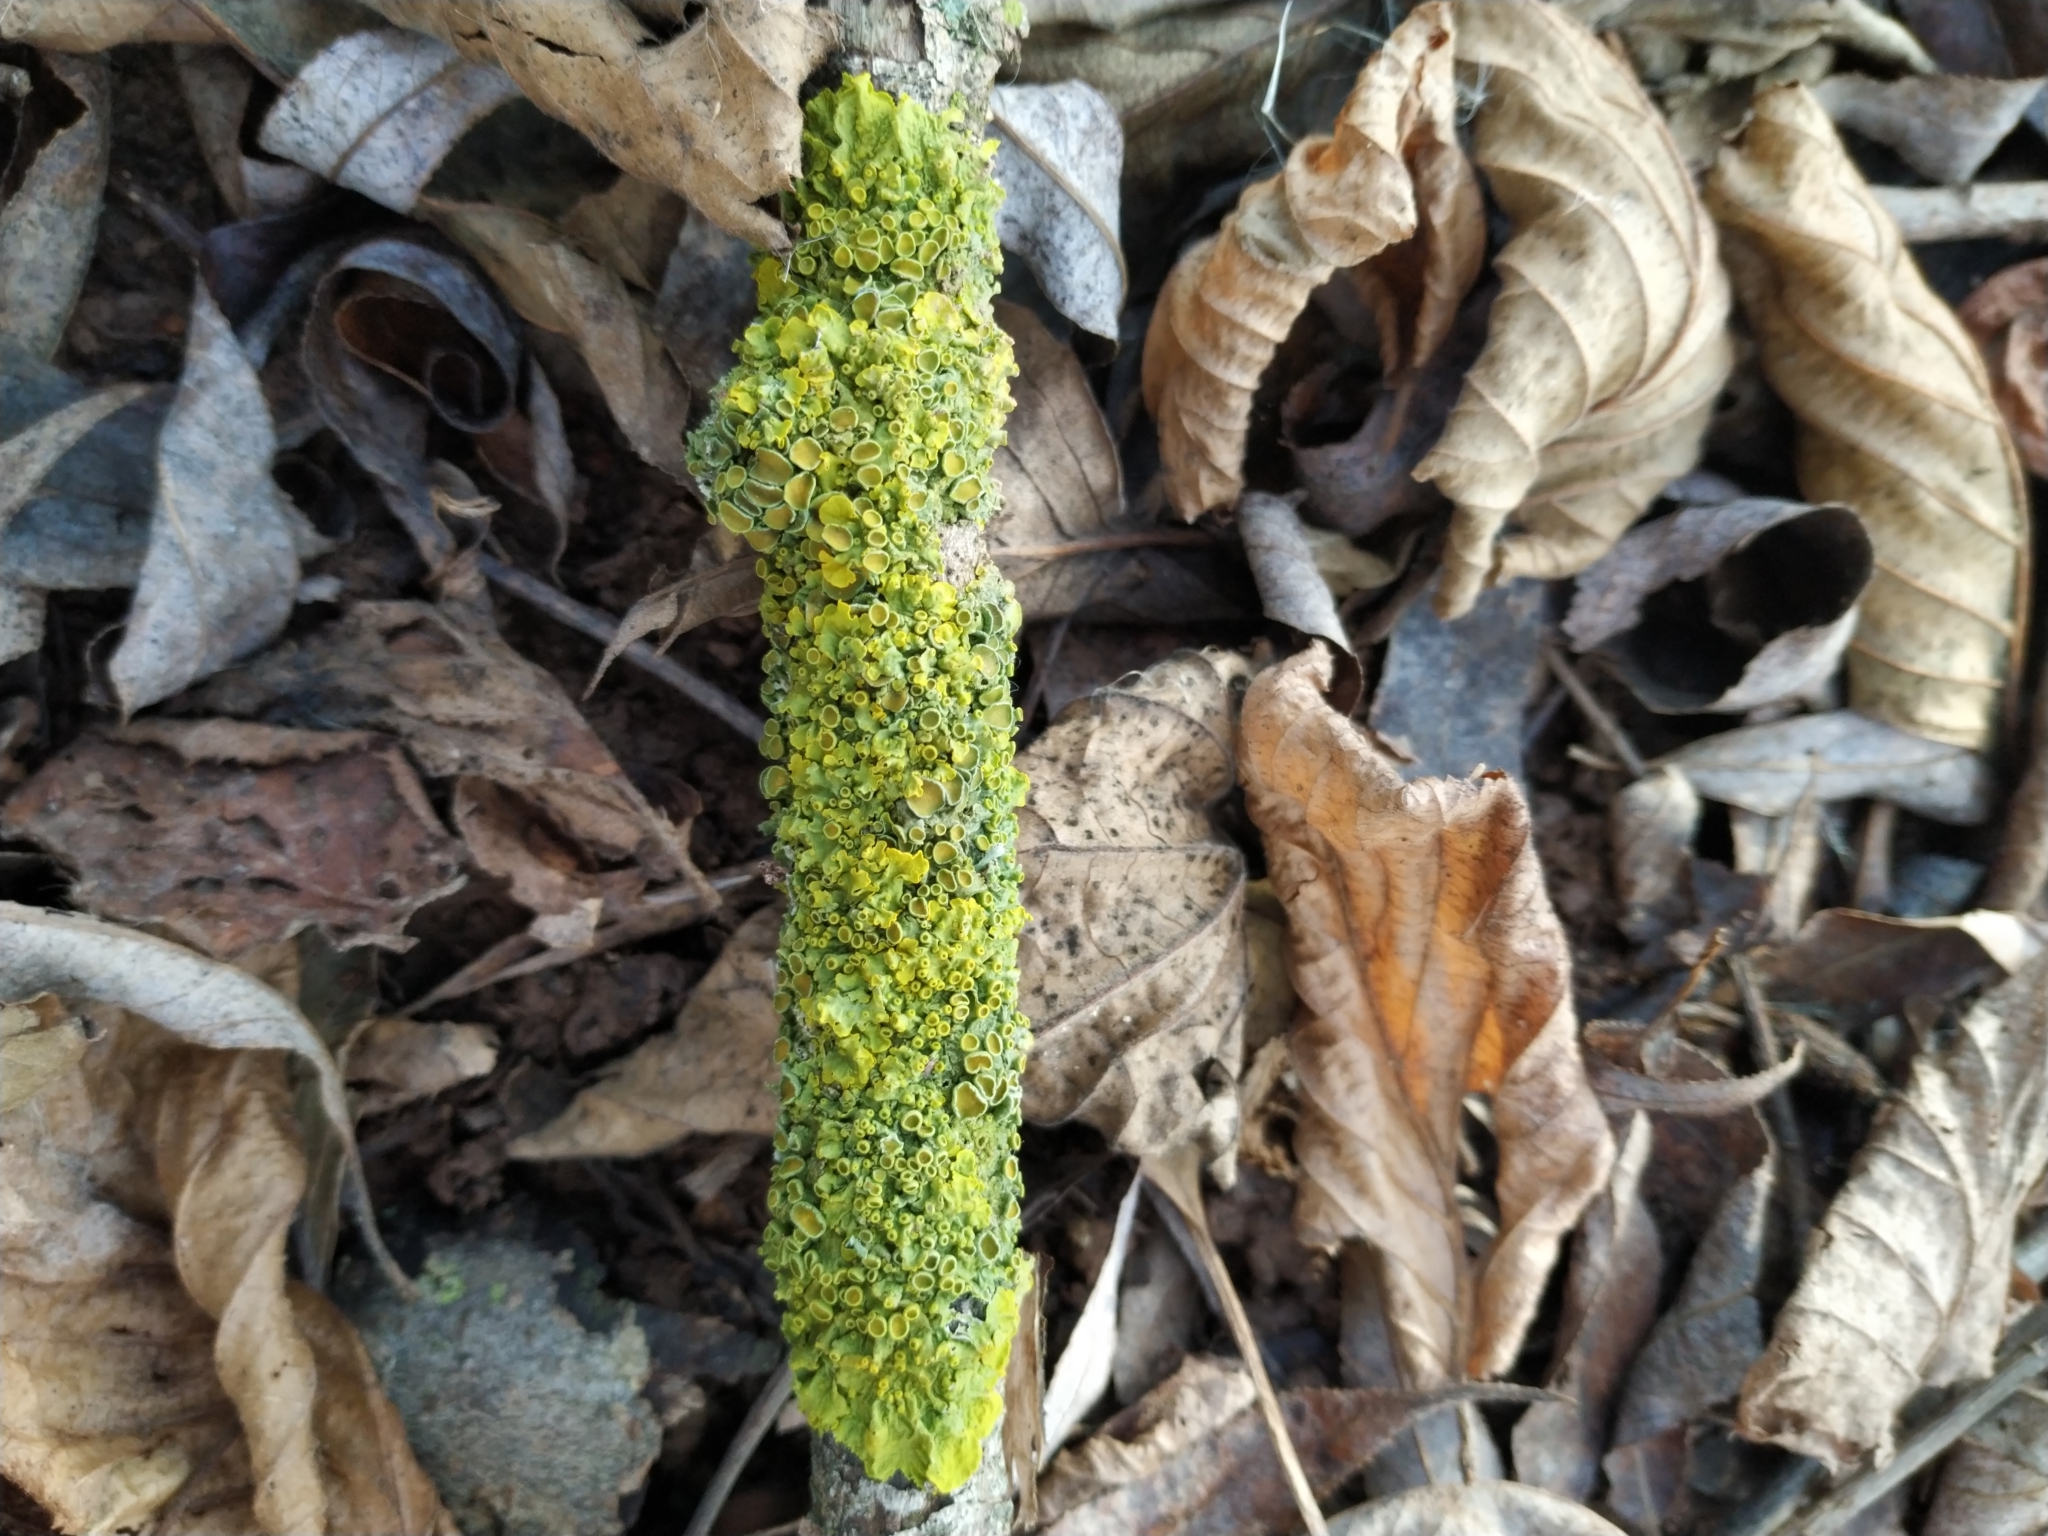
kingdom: Fungi
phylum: Ascomycota
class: Lecanoromycetes
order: Teloschistales
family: Teloschistaceae
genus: Xanthoria
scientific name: Xanthoria parietina
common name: Common orange lichen
